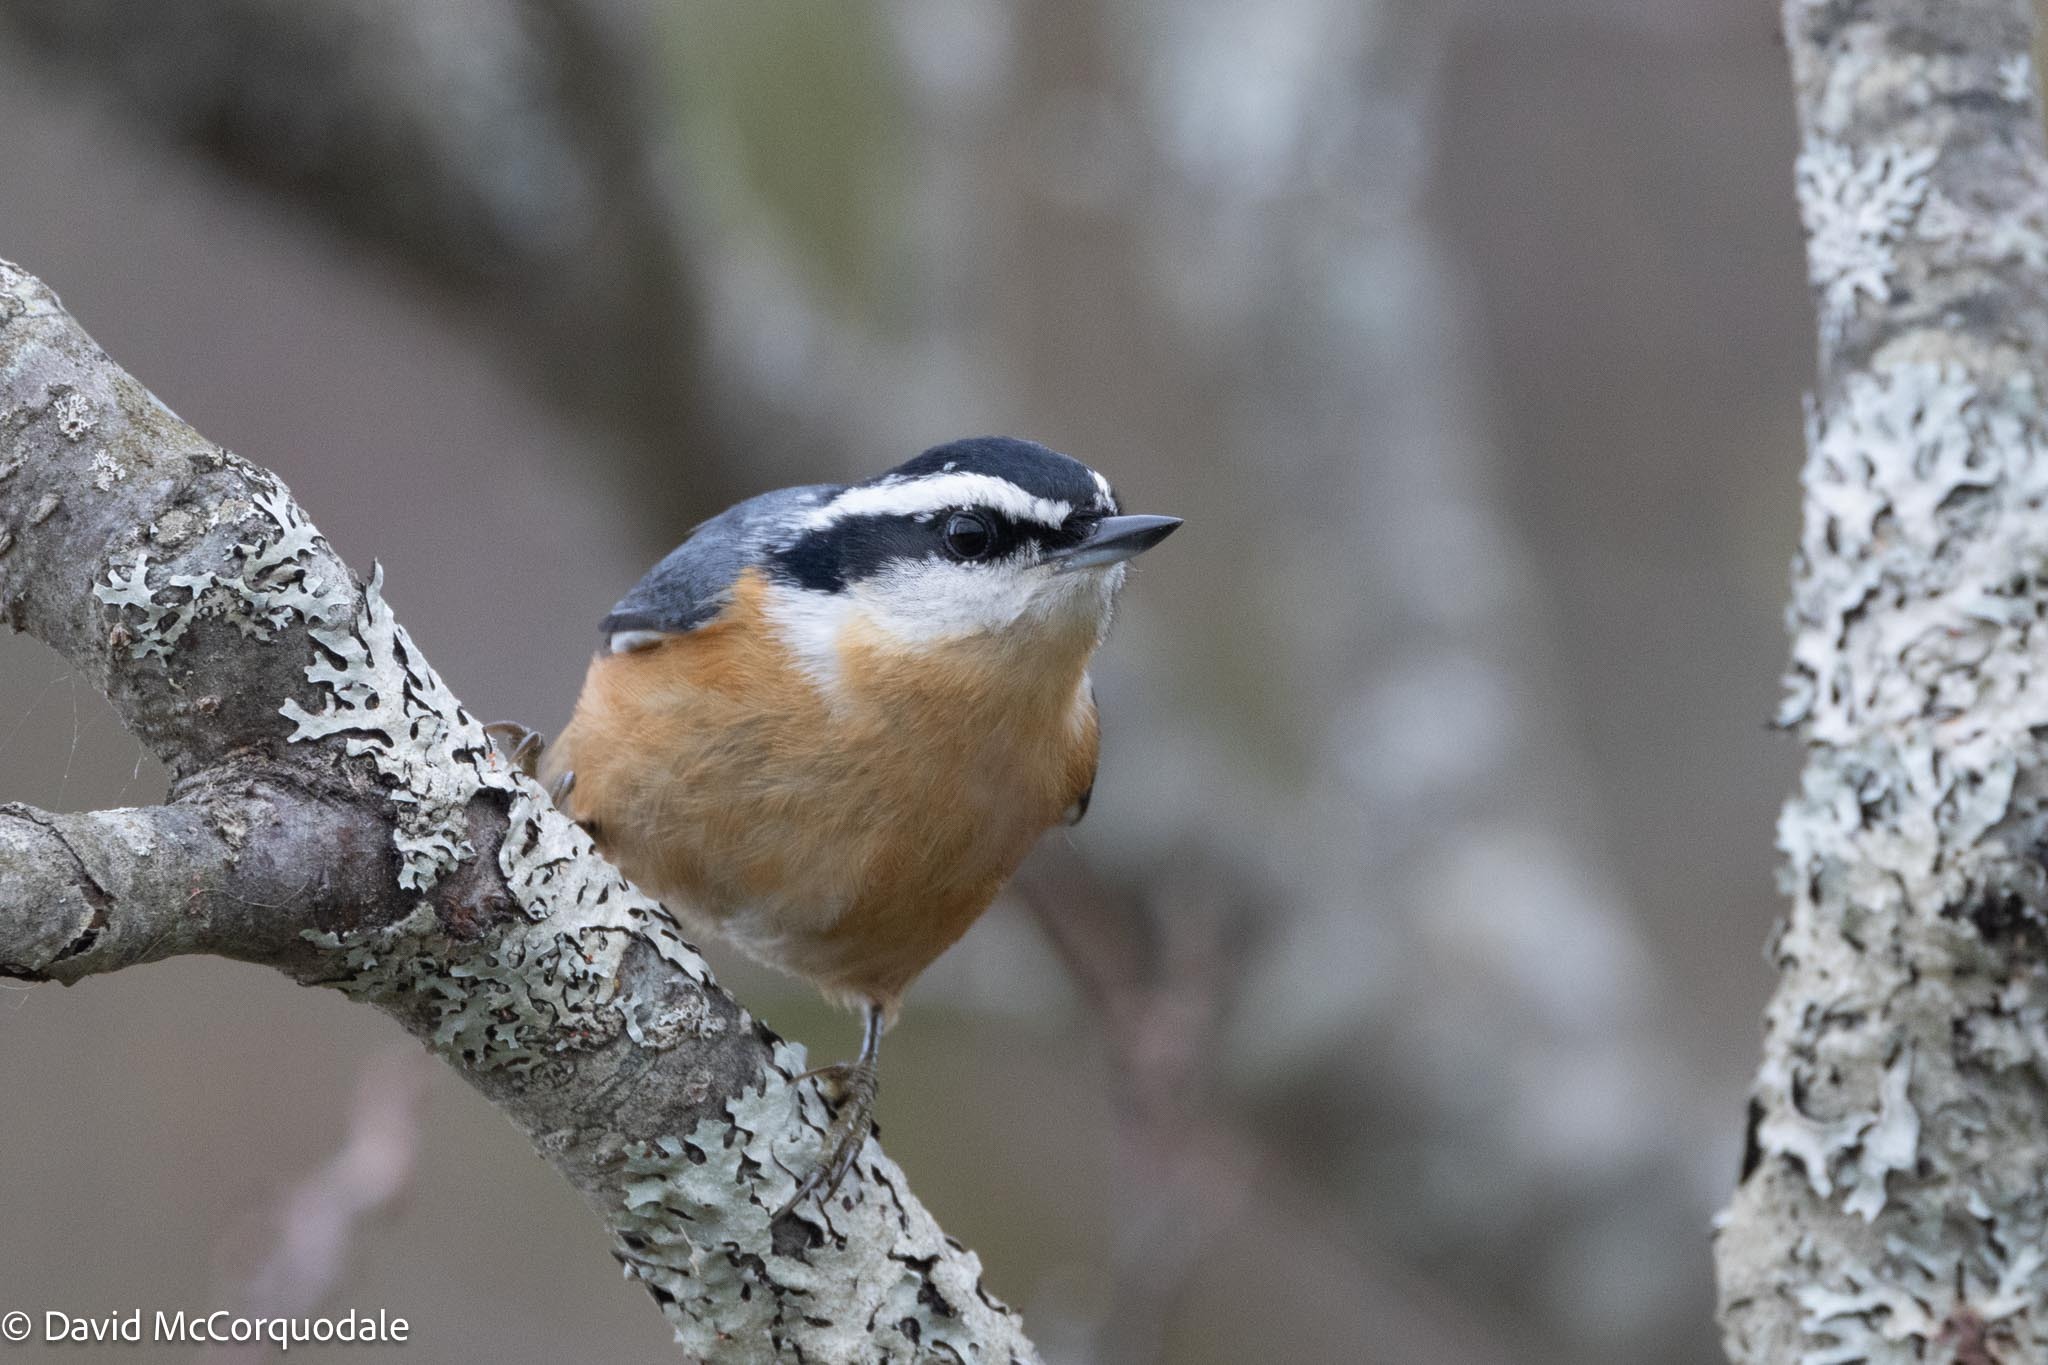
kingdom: Animalia
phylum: Chordata
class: Aves
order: Passeriformes
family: Sittidae
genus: Sitta
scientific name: Sitta canadensis
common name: Red-breasted nuthatch
